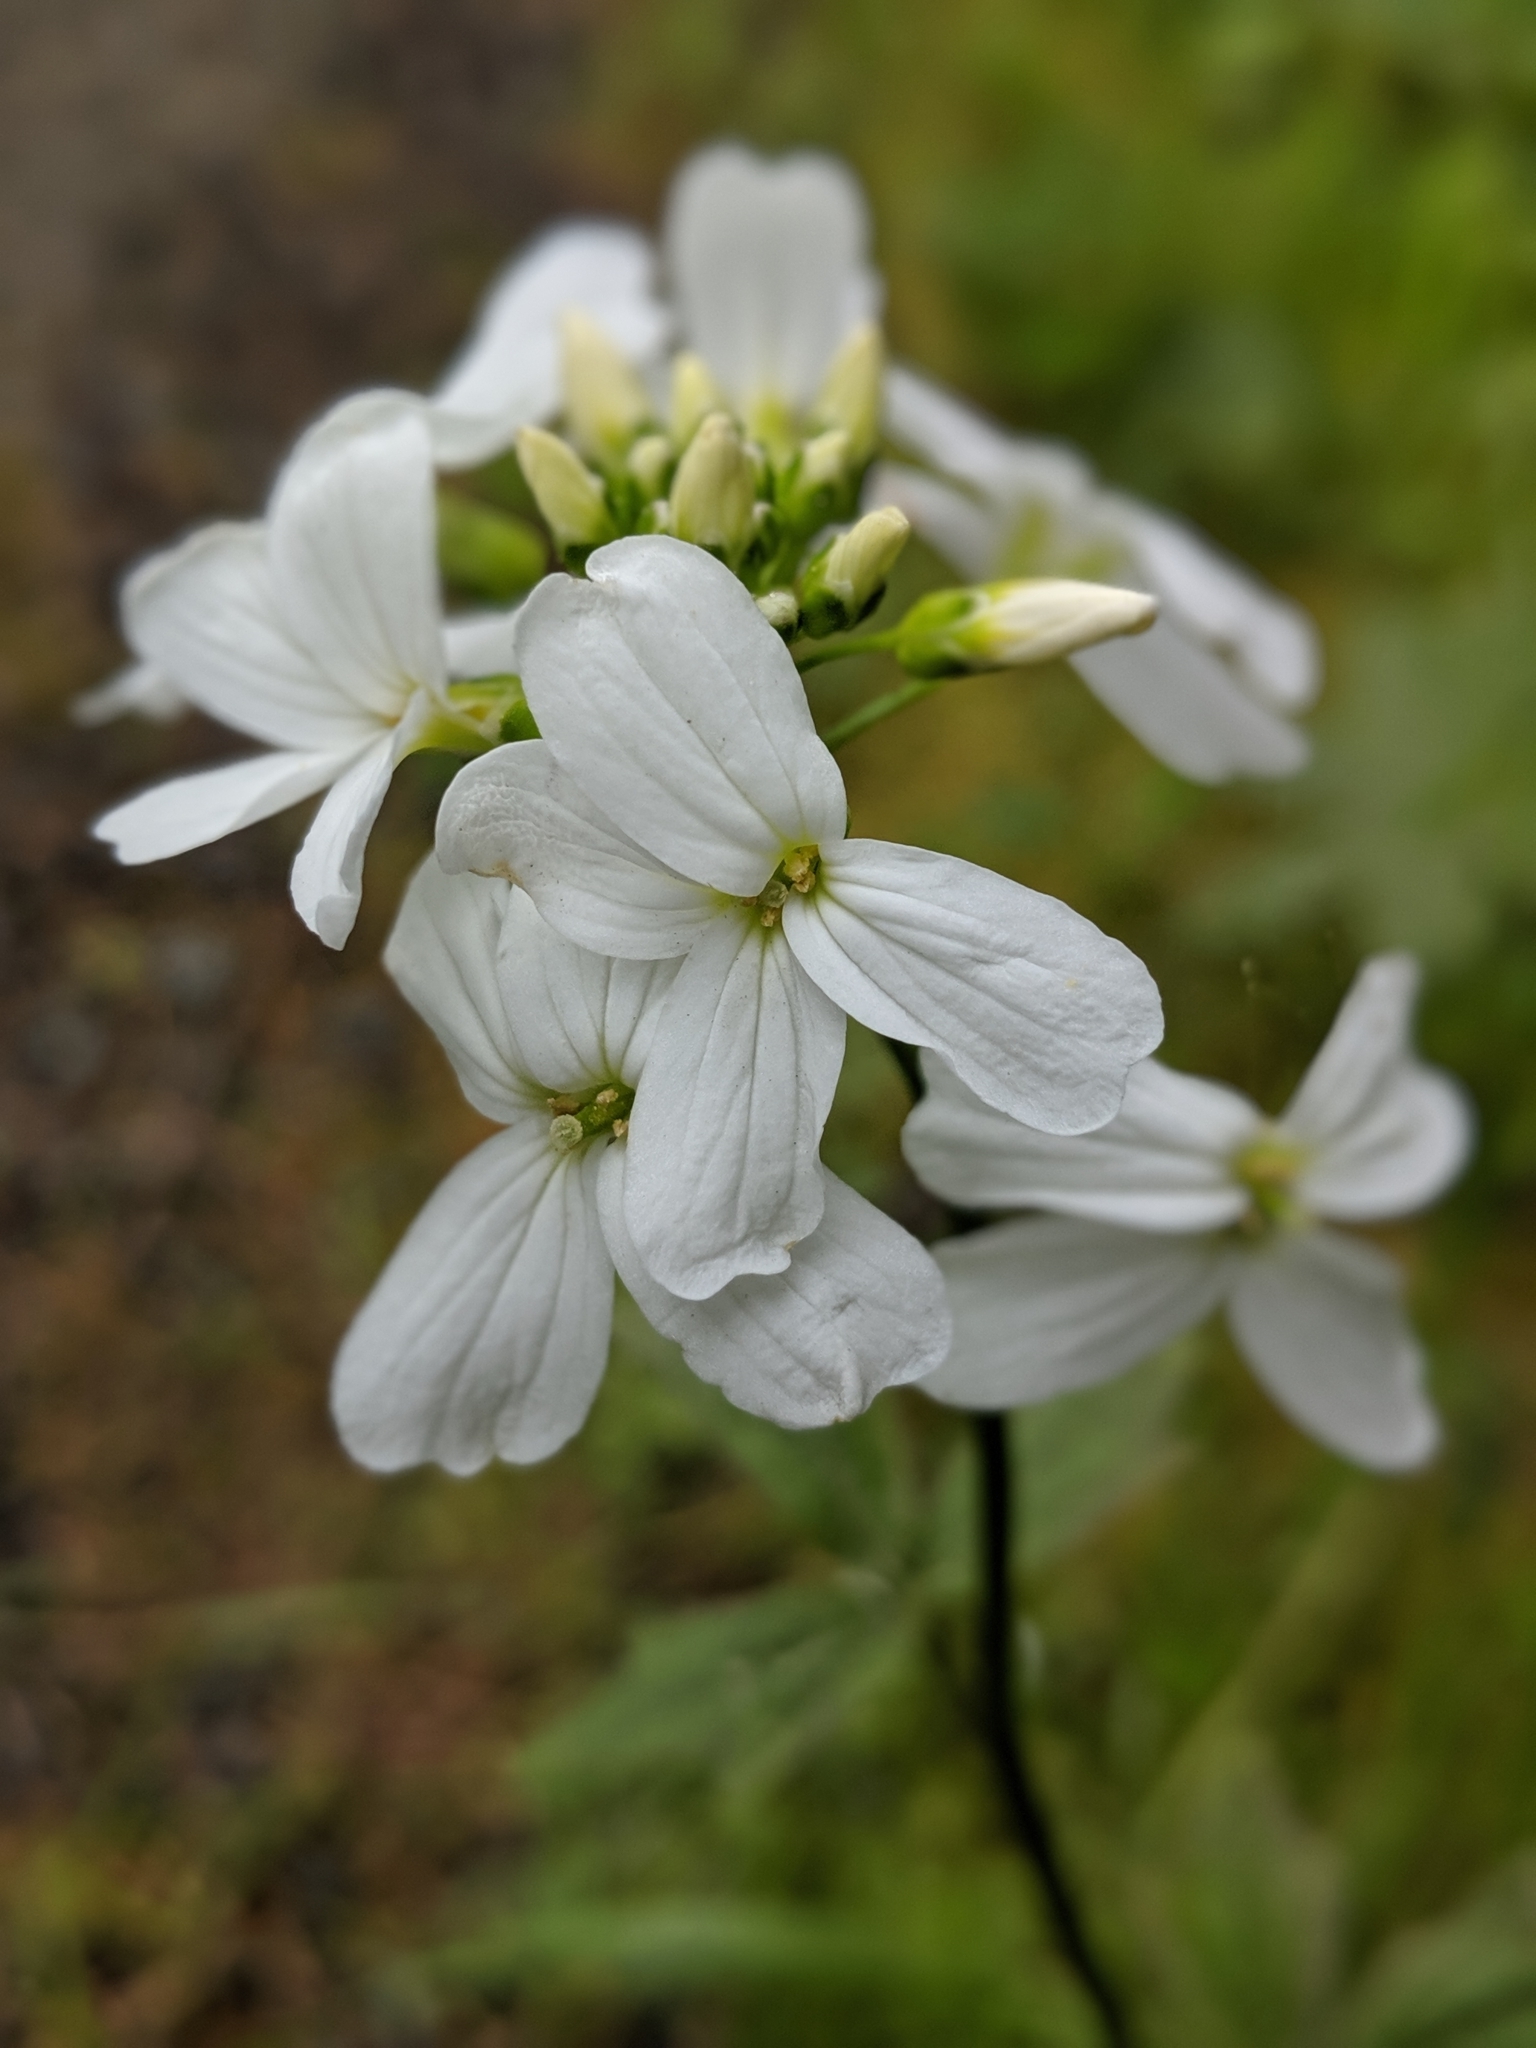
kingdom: Plantae
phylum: Tracheophyta
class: Magnoliopsida
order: Brassicales
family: Brassicaceae
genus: Cardamine
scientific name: Cardamine angulata
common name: Angled bittercress
